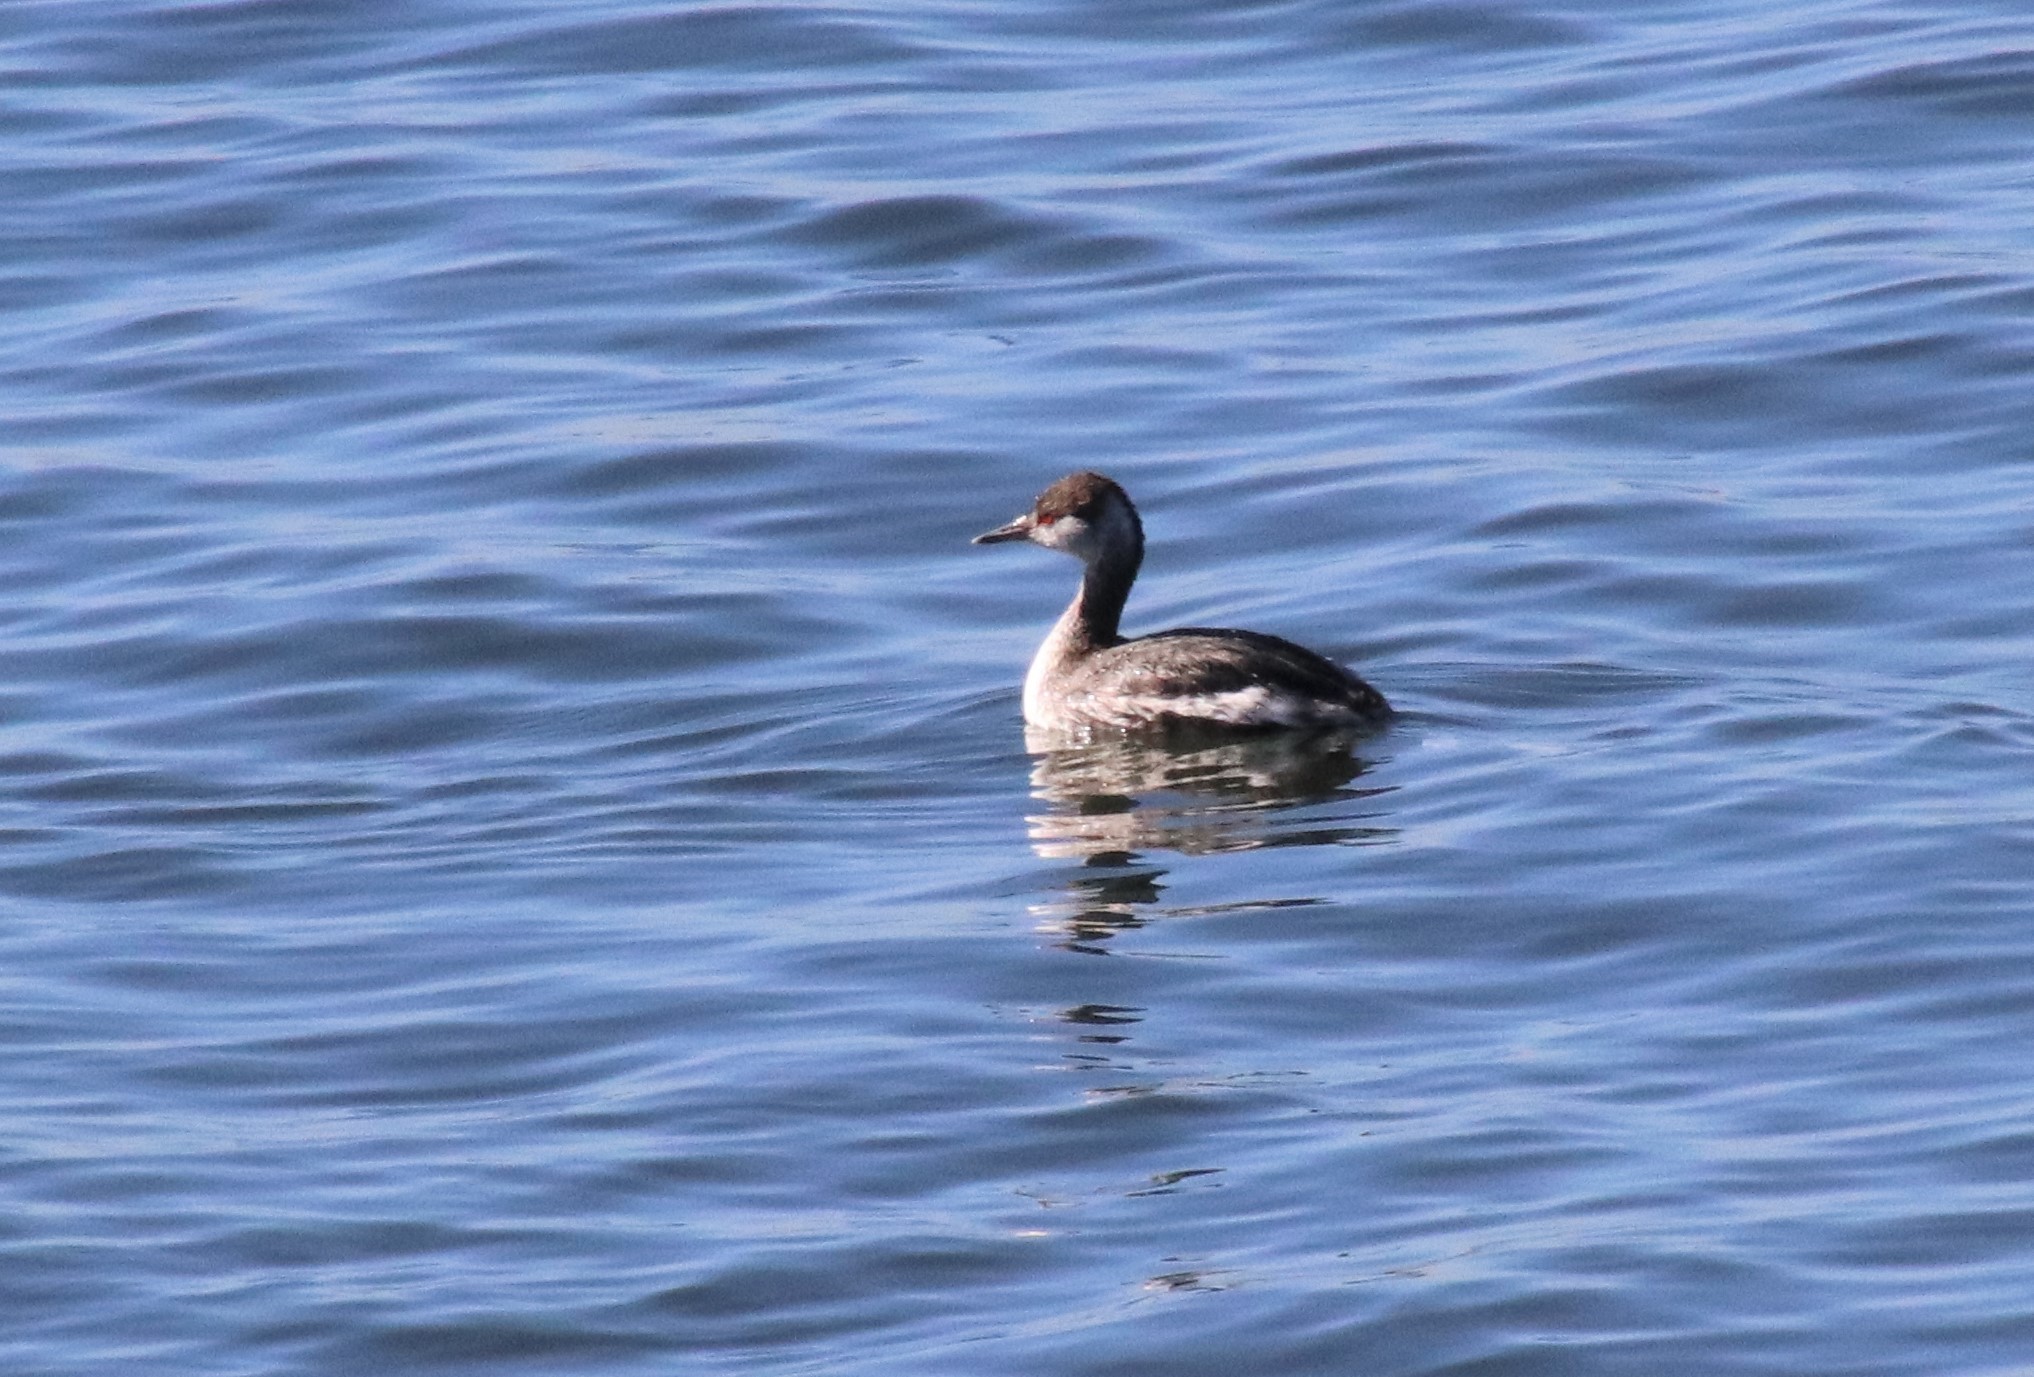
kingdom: Animalia
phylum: Chordata
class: Aves
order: Podicipediformes
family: Podicipedidae
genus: Podiceps
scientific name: Podiceps auritus
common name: Horned grebe
